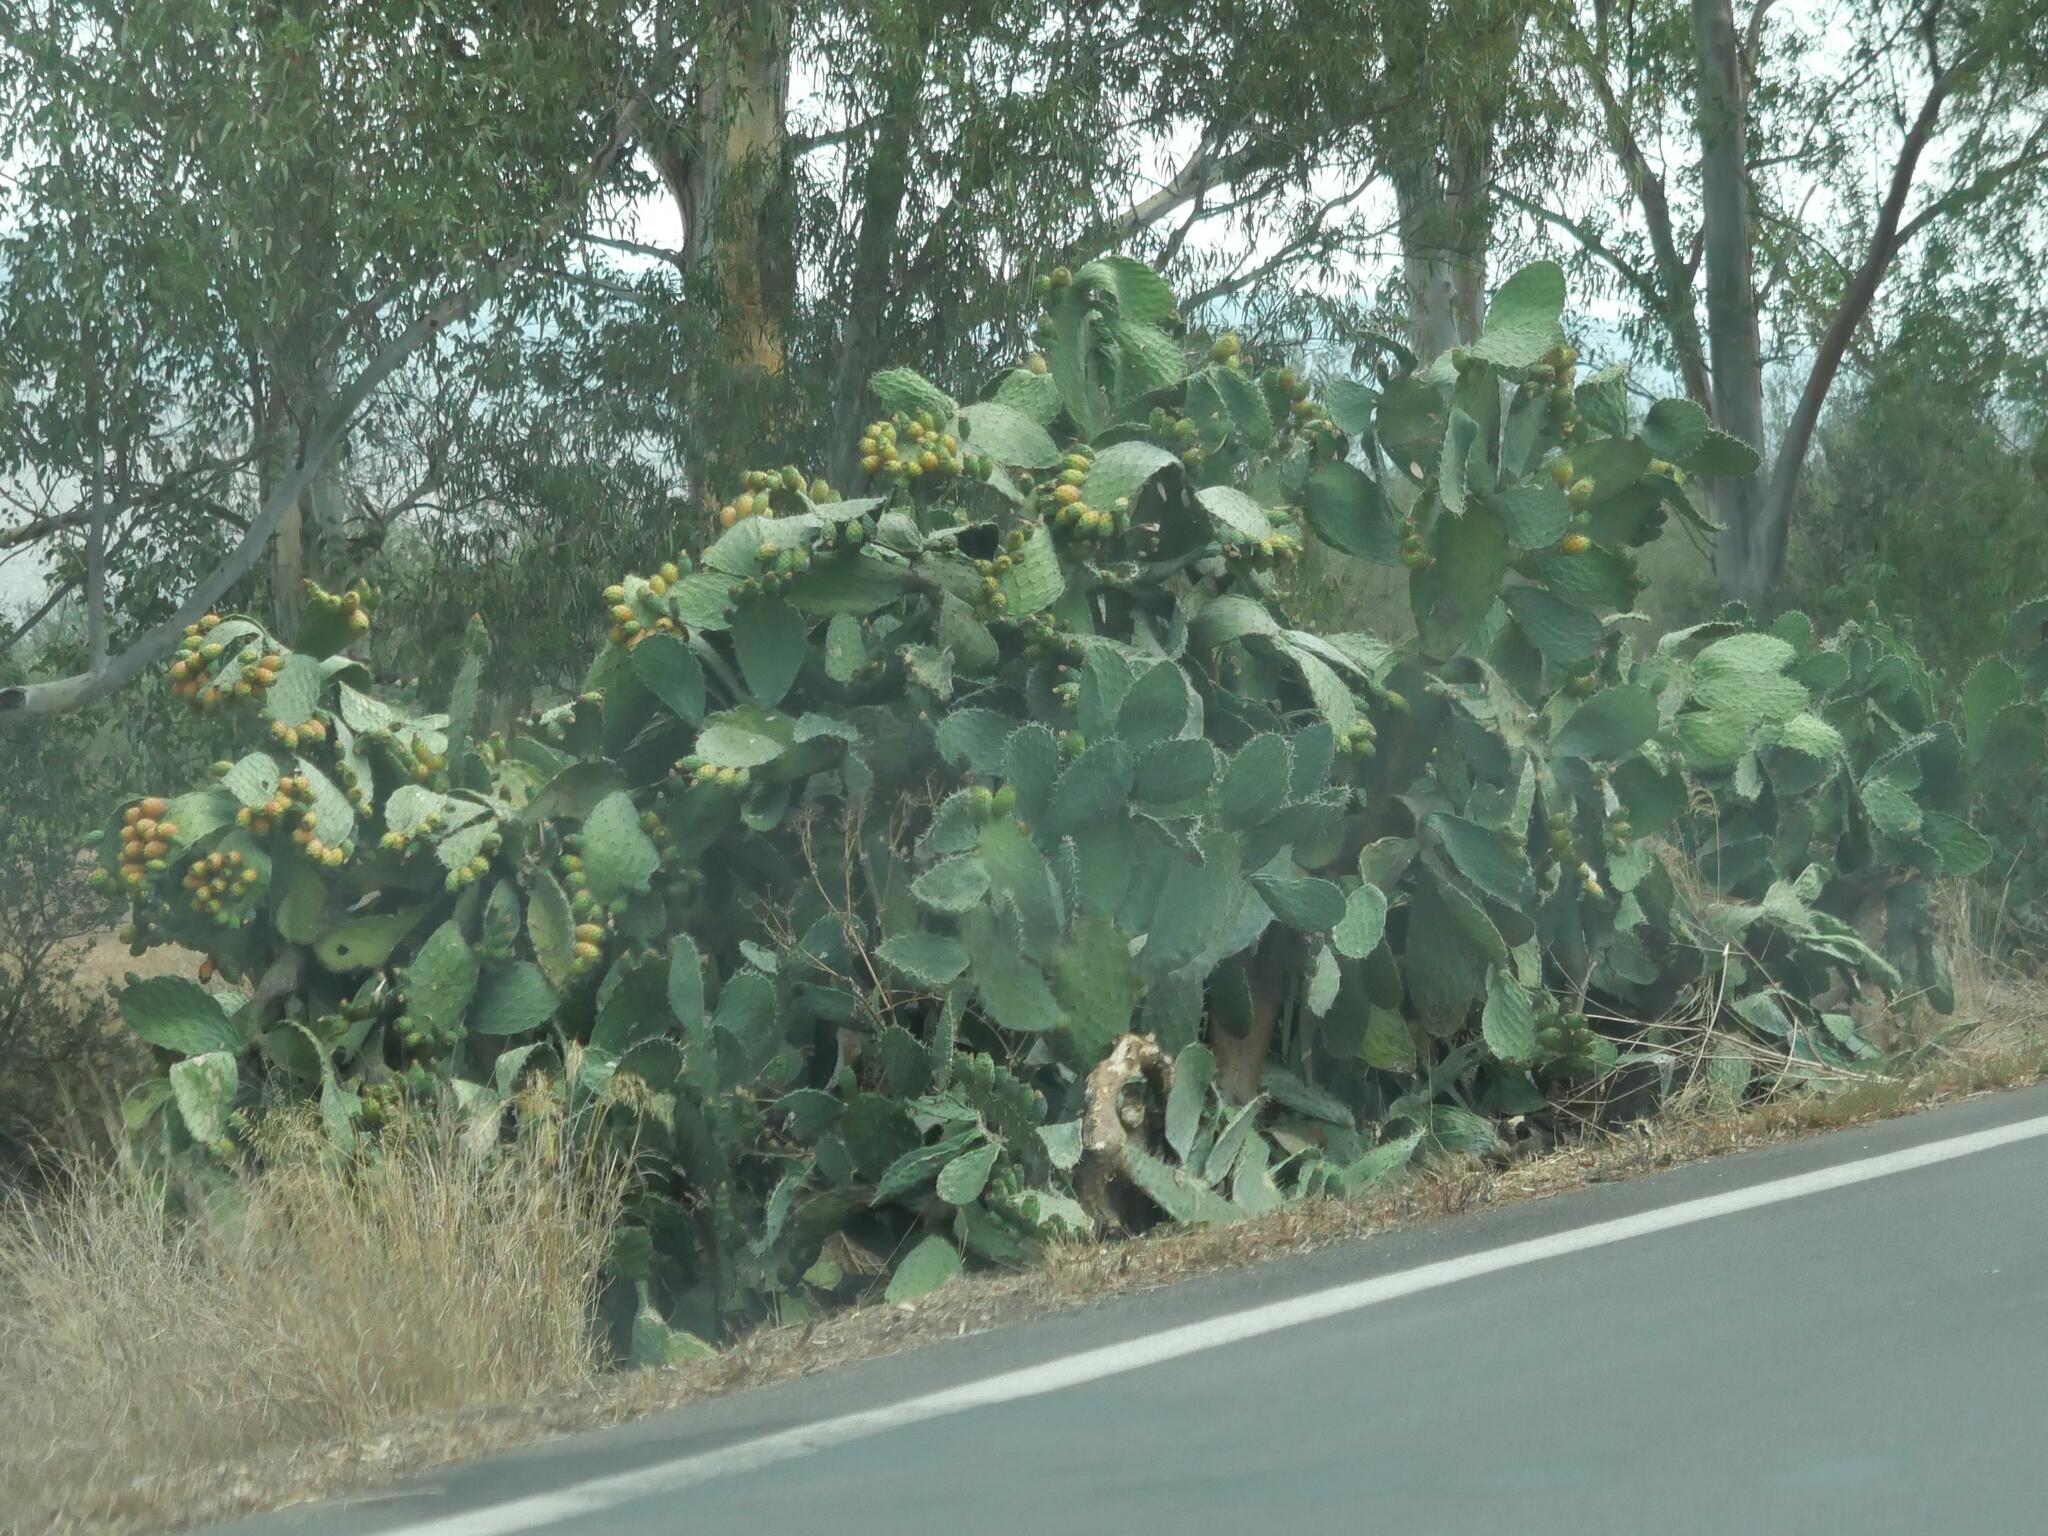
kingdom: Plantae
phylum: Tracheophyta
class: Magnoliopsida
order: Caryophyllales
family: Cactaceae
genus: Opuntia
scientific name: Opuntia ficus-indica
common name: Barbary fig
